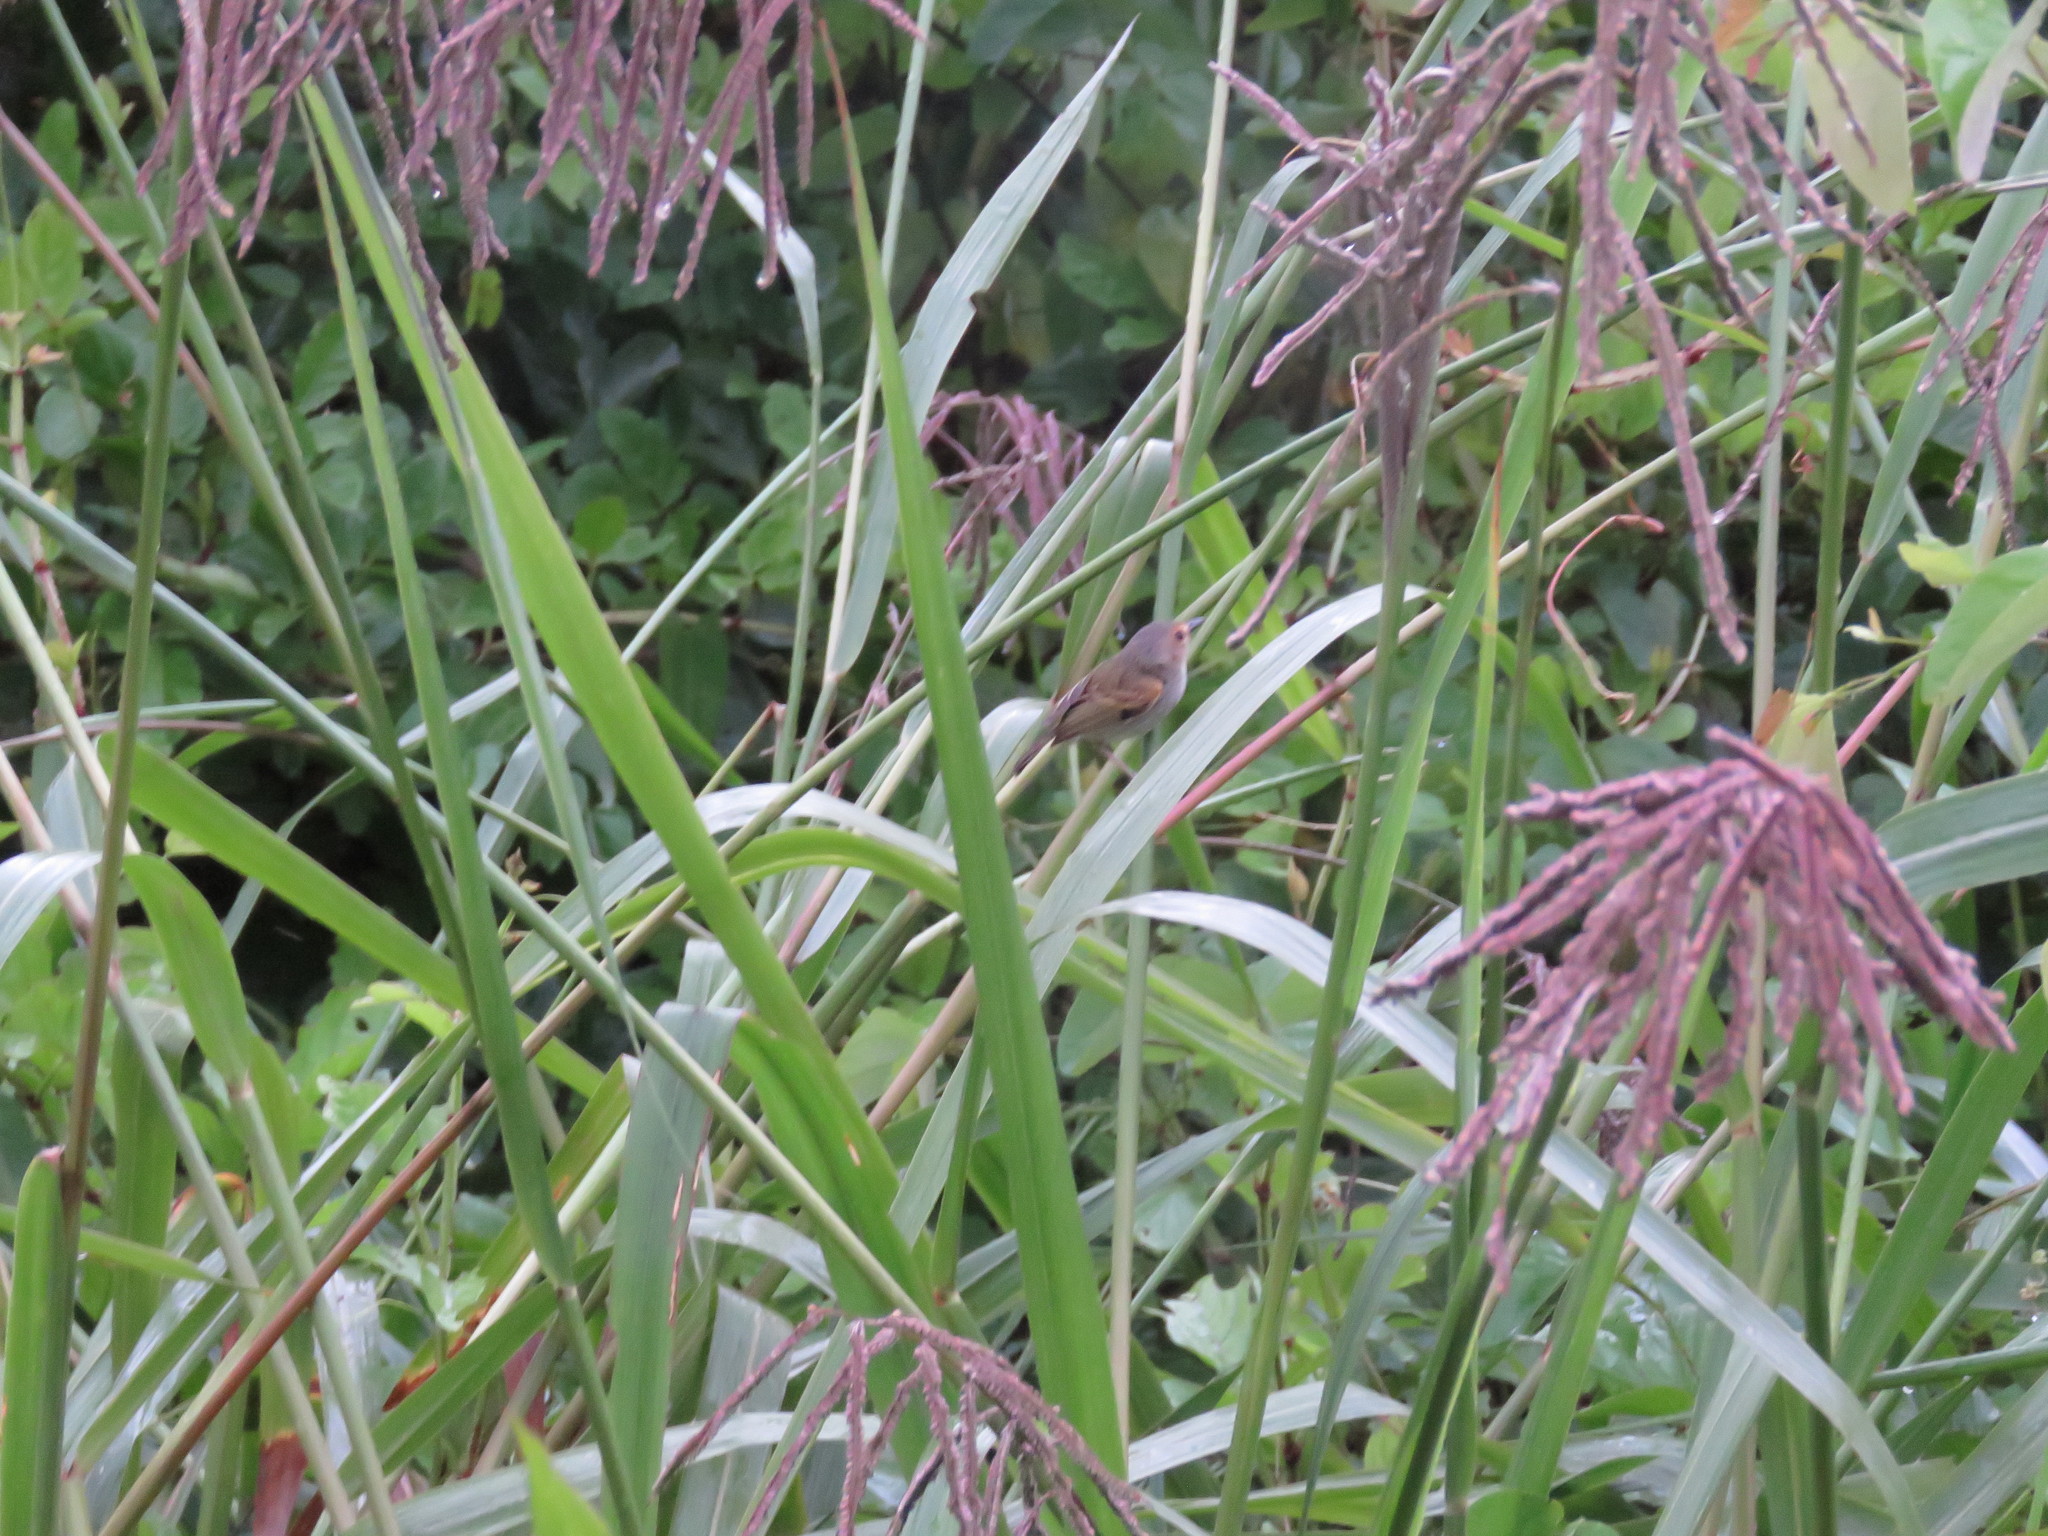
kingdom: Animalia
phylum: Chordata
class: Aves
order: Passeriformes
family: Tyrannidae
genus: Poecilotriccus
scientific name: Poecilotriccus latirostris
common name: Rusty-fronted tody-flycatcher
